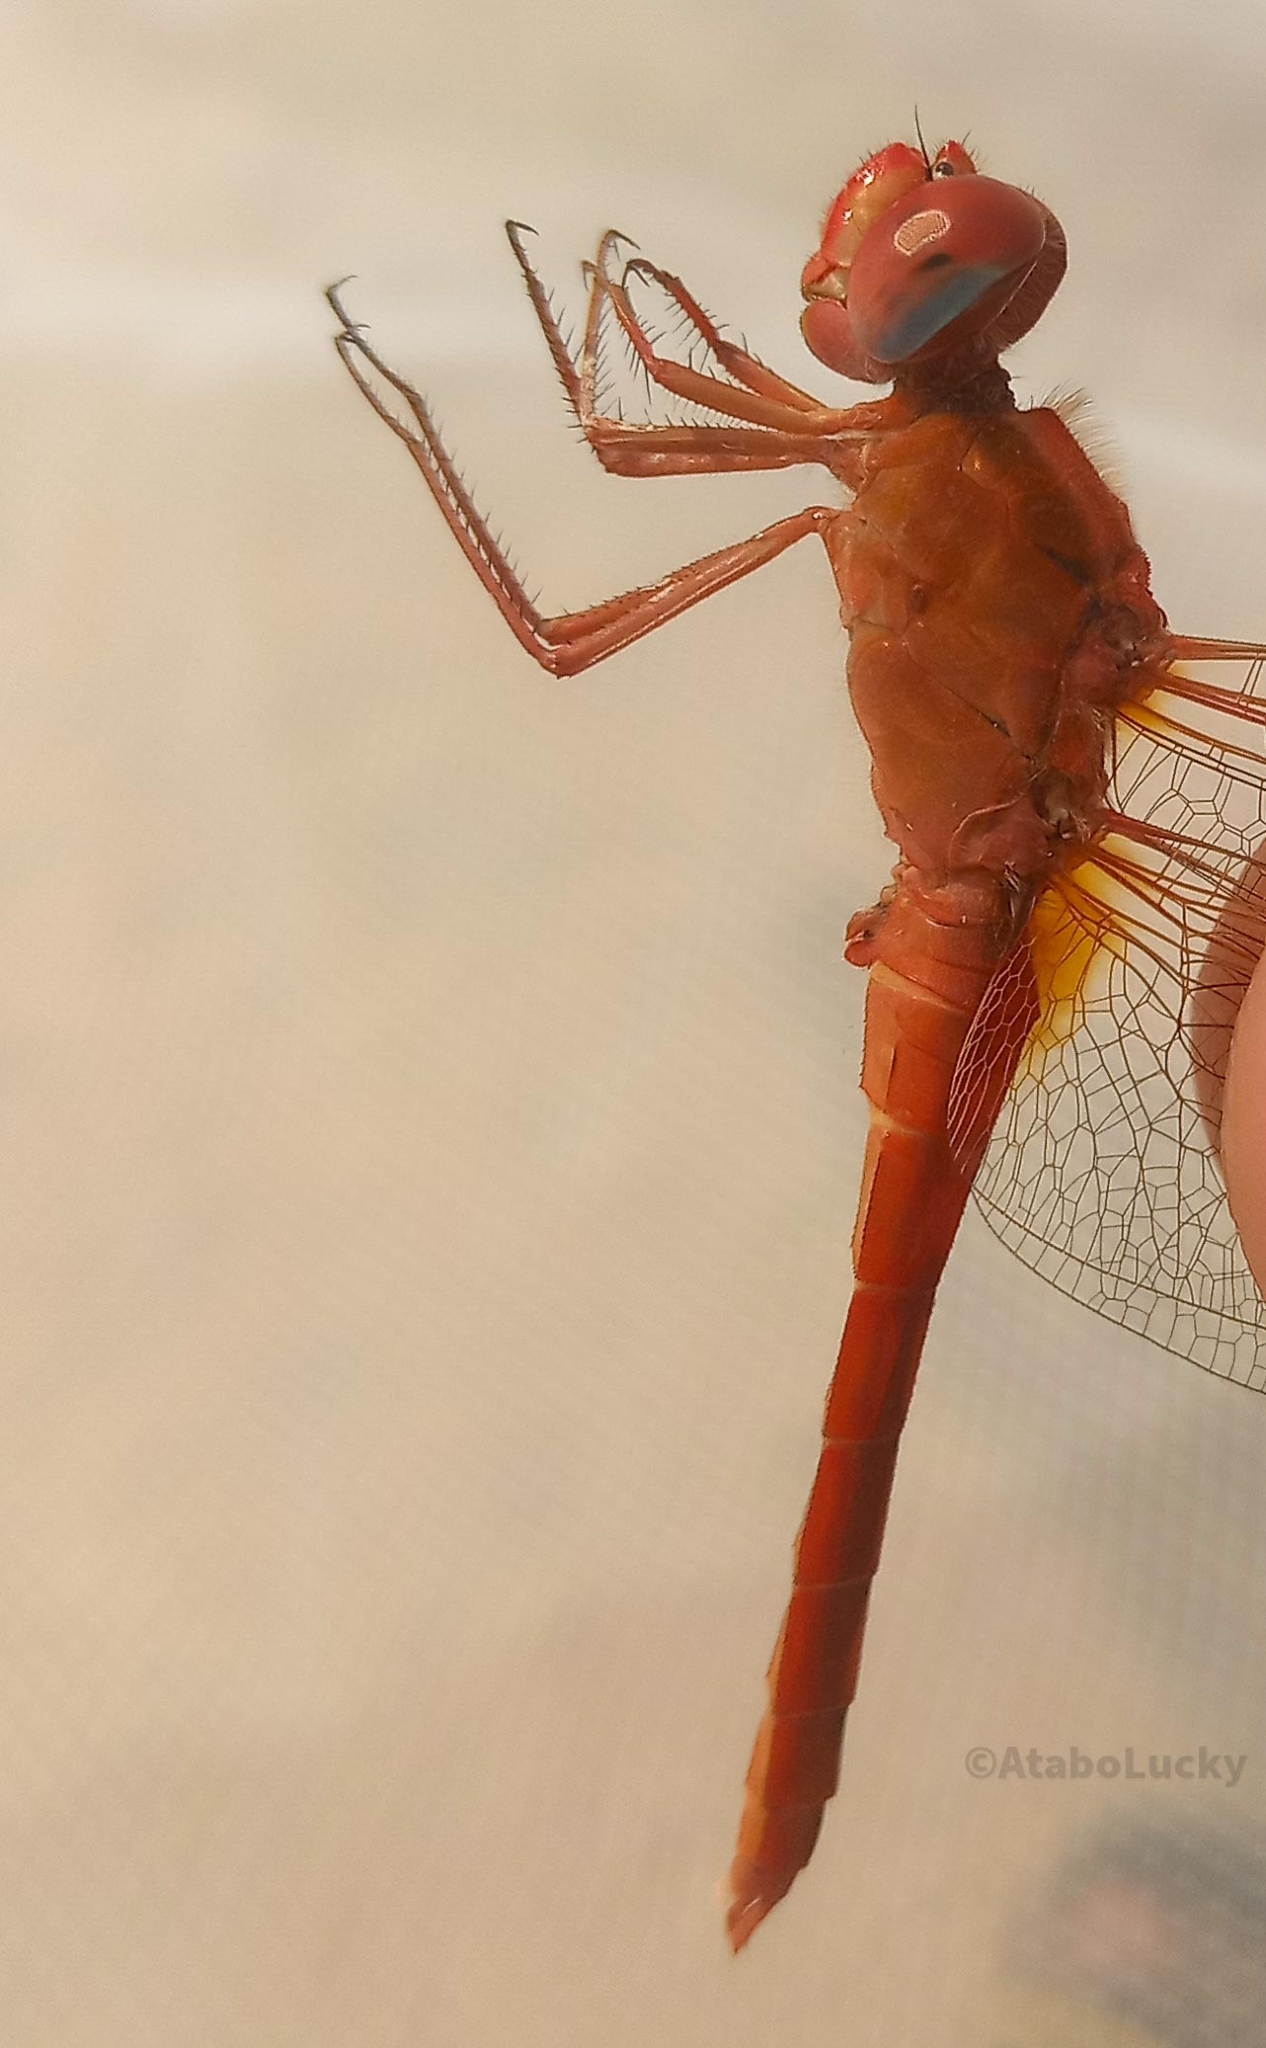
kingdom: Animalia
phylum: Arthropoda
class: Insecta
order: Odonata
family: Libellulidae
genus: Crocothemis
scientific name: Crocothemis erythraea
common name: Scarlet dragonfly
